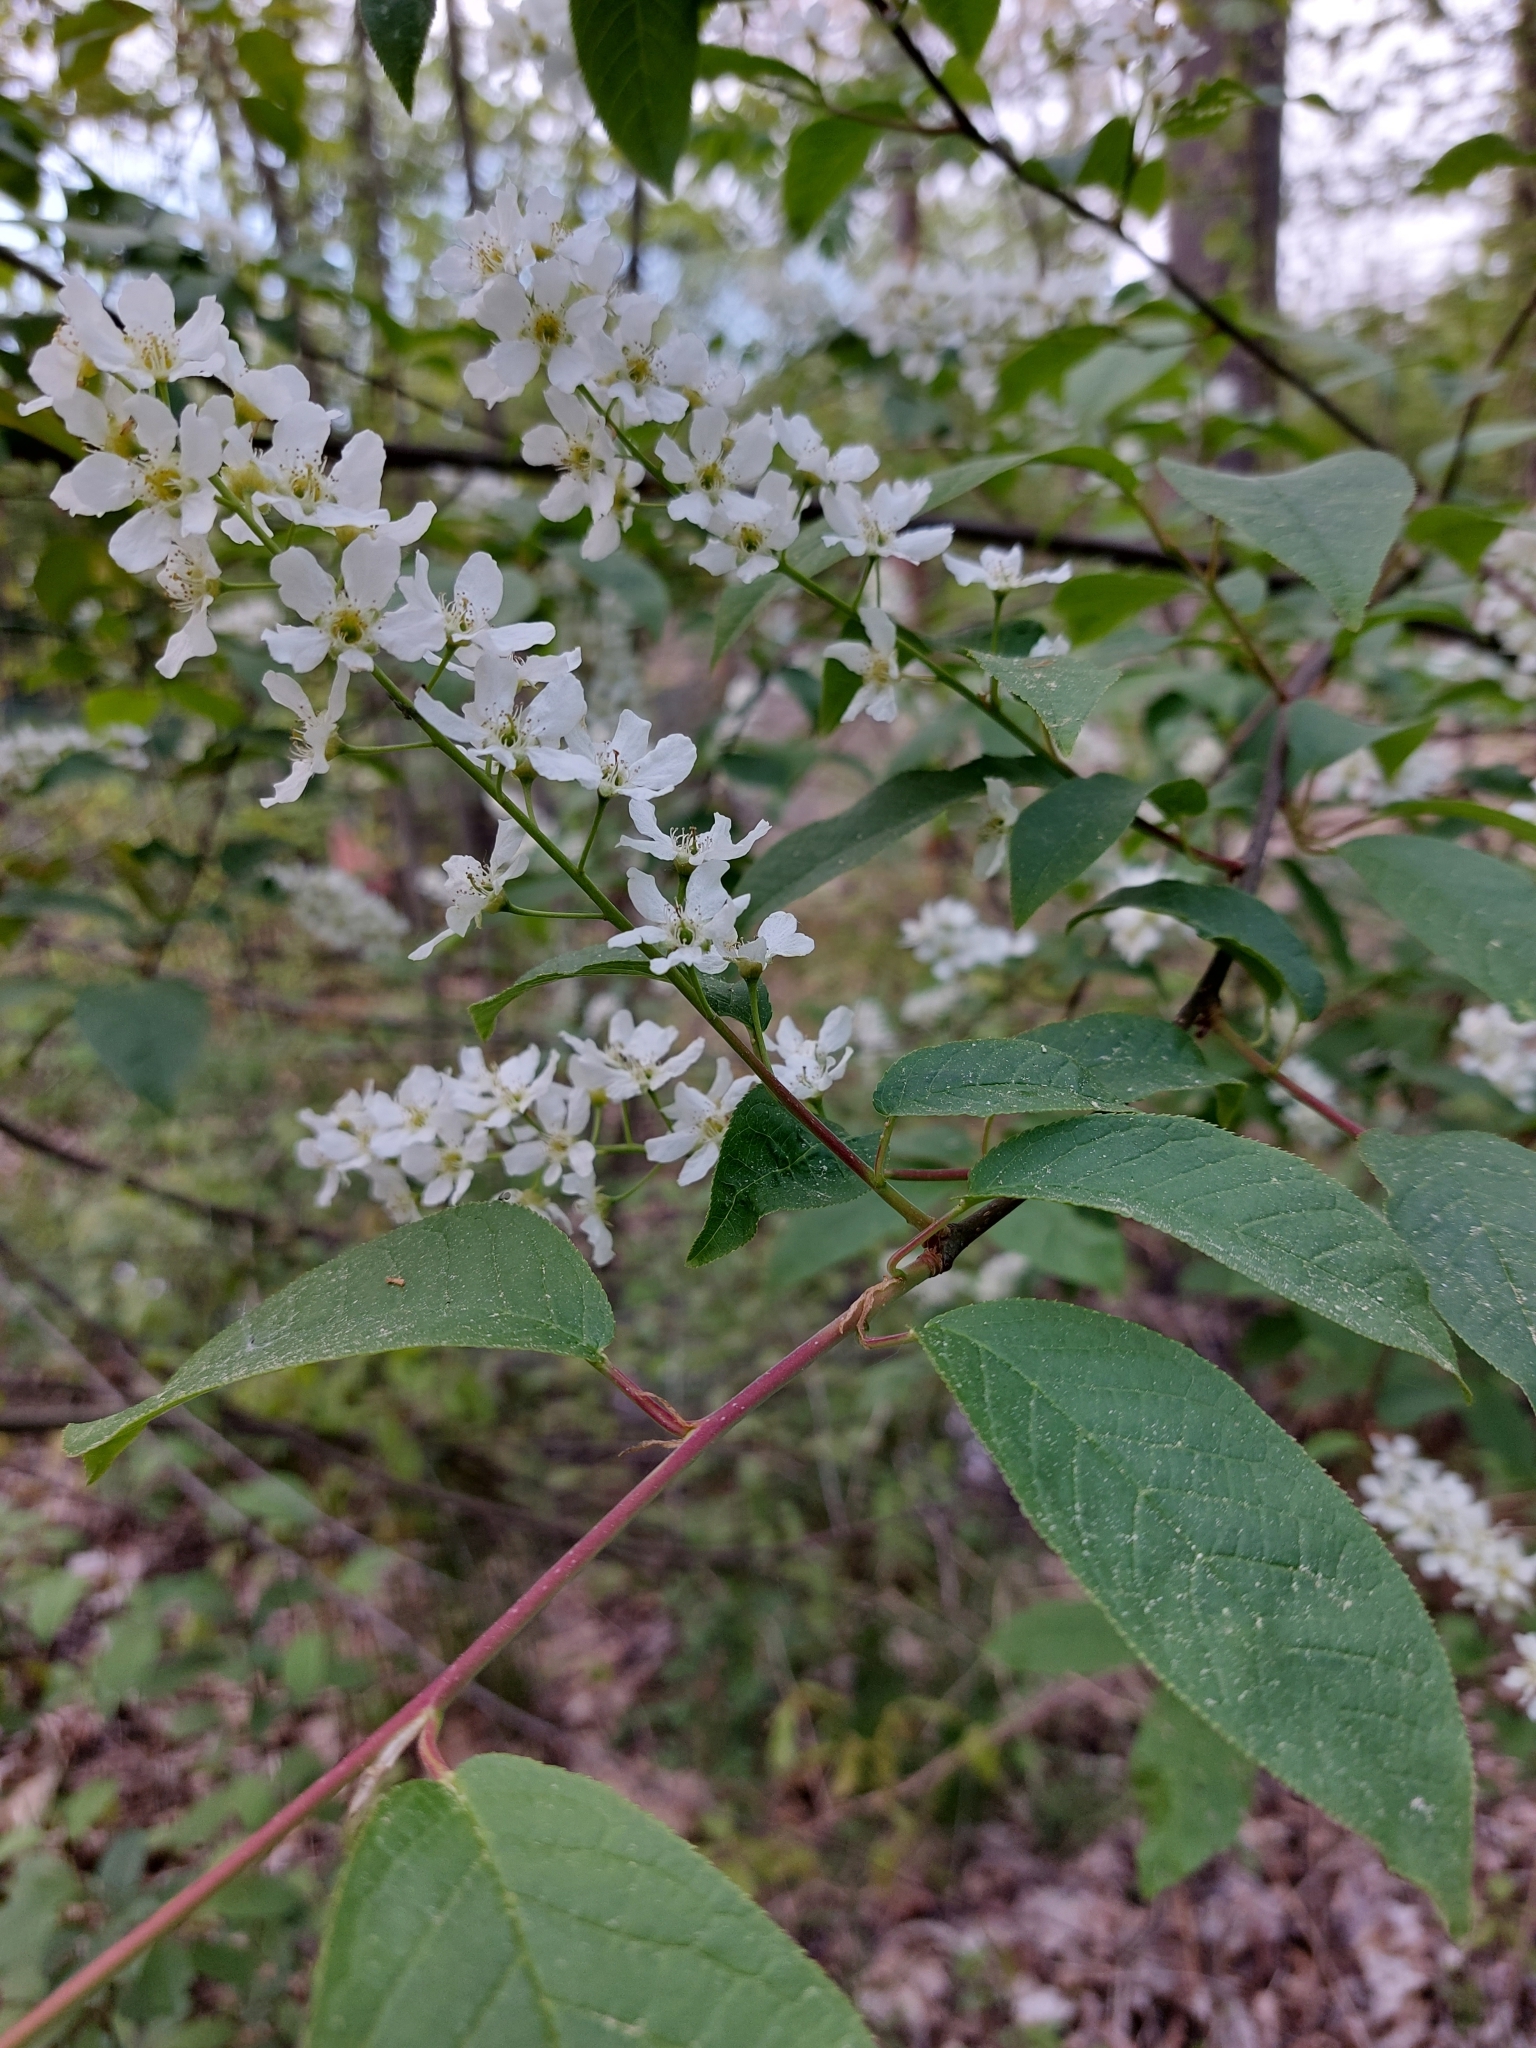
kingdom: Plantae
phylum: Tracheophyta
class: Magnoliopsida
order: Rosales
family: Rosaceae
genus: Prunus
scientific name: Prunus padus
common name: Bird cherry
